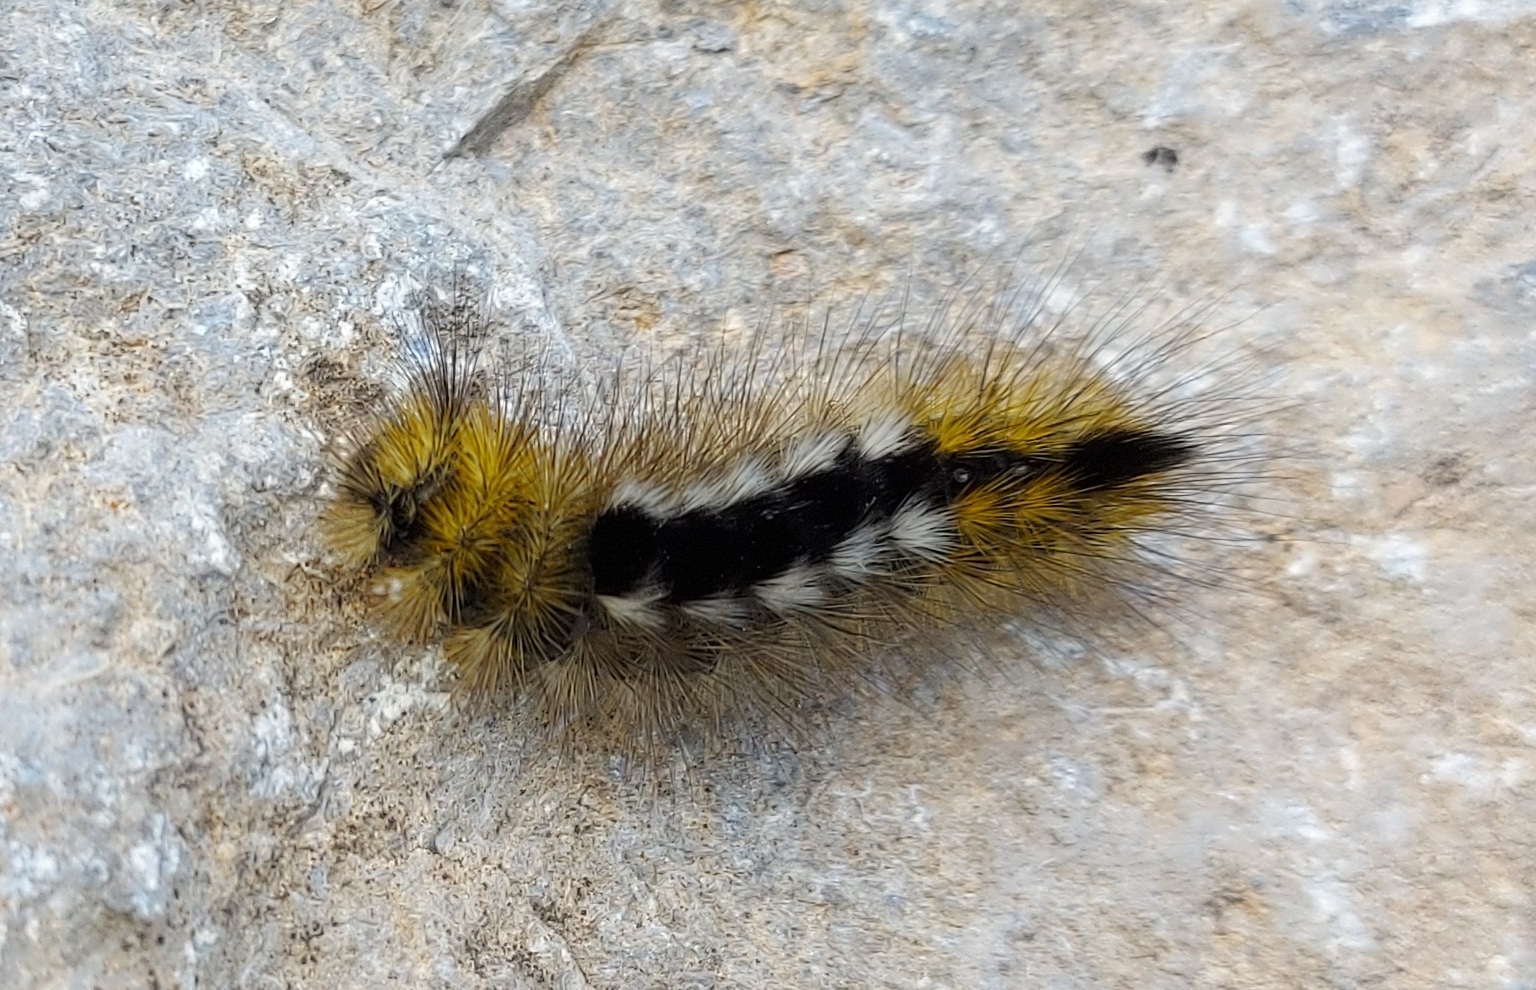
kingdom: Animalia
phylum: Arthropoda
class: Insecta
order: Lepidoptera
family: Erebidae
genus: Calliteara
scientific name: Calliteara Dicallomera fascelina
